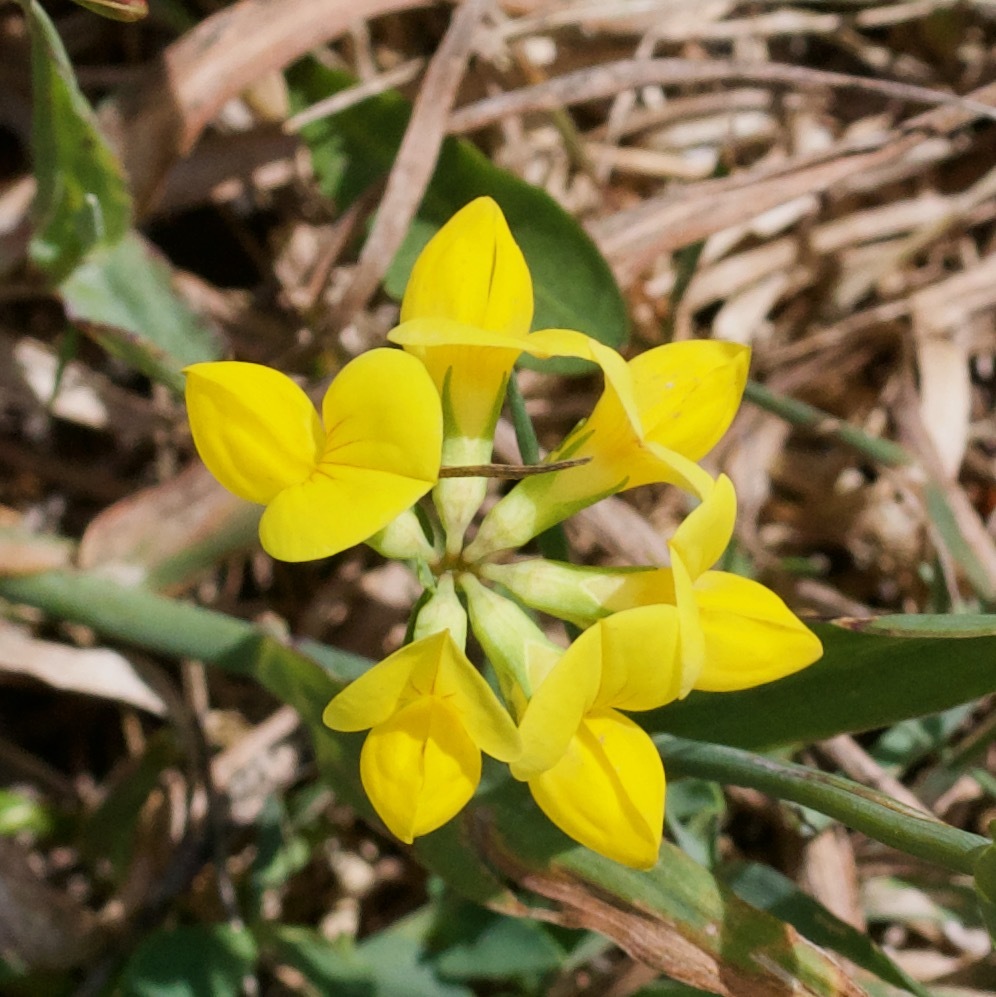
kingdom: Plantae
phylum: Tracheophyta
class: Magnoliopsida
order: Fabales
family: Fabaceae
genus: Lotus
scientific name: Lotus corniculatus
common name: Common bird's-foot-trefoil
